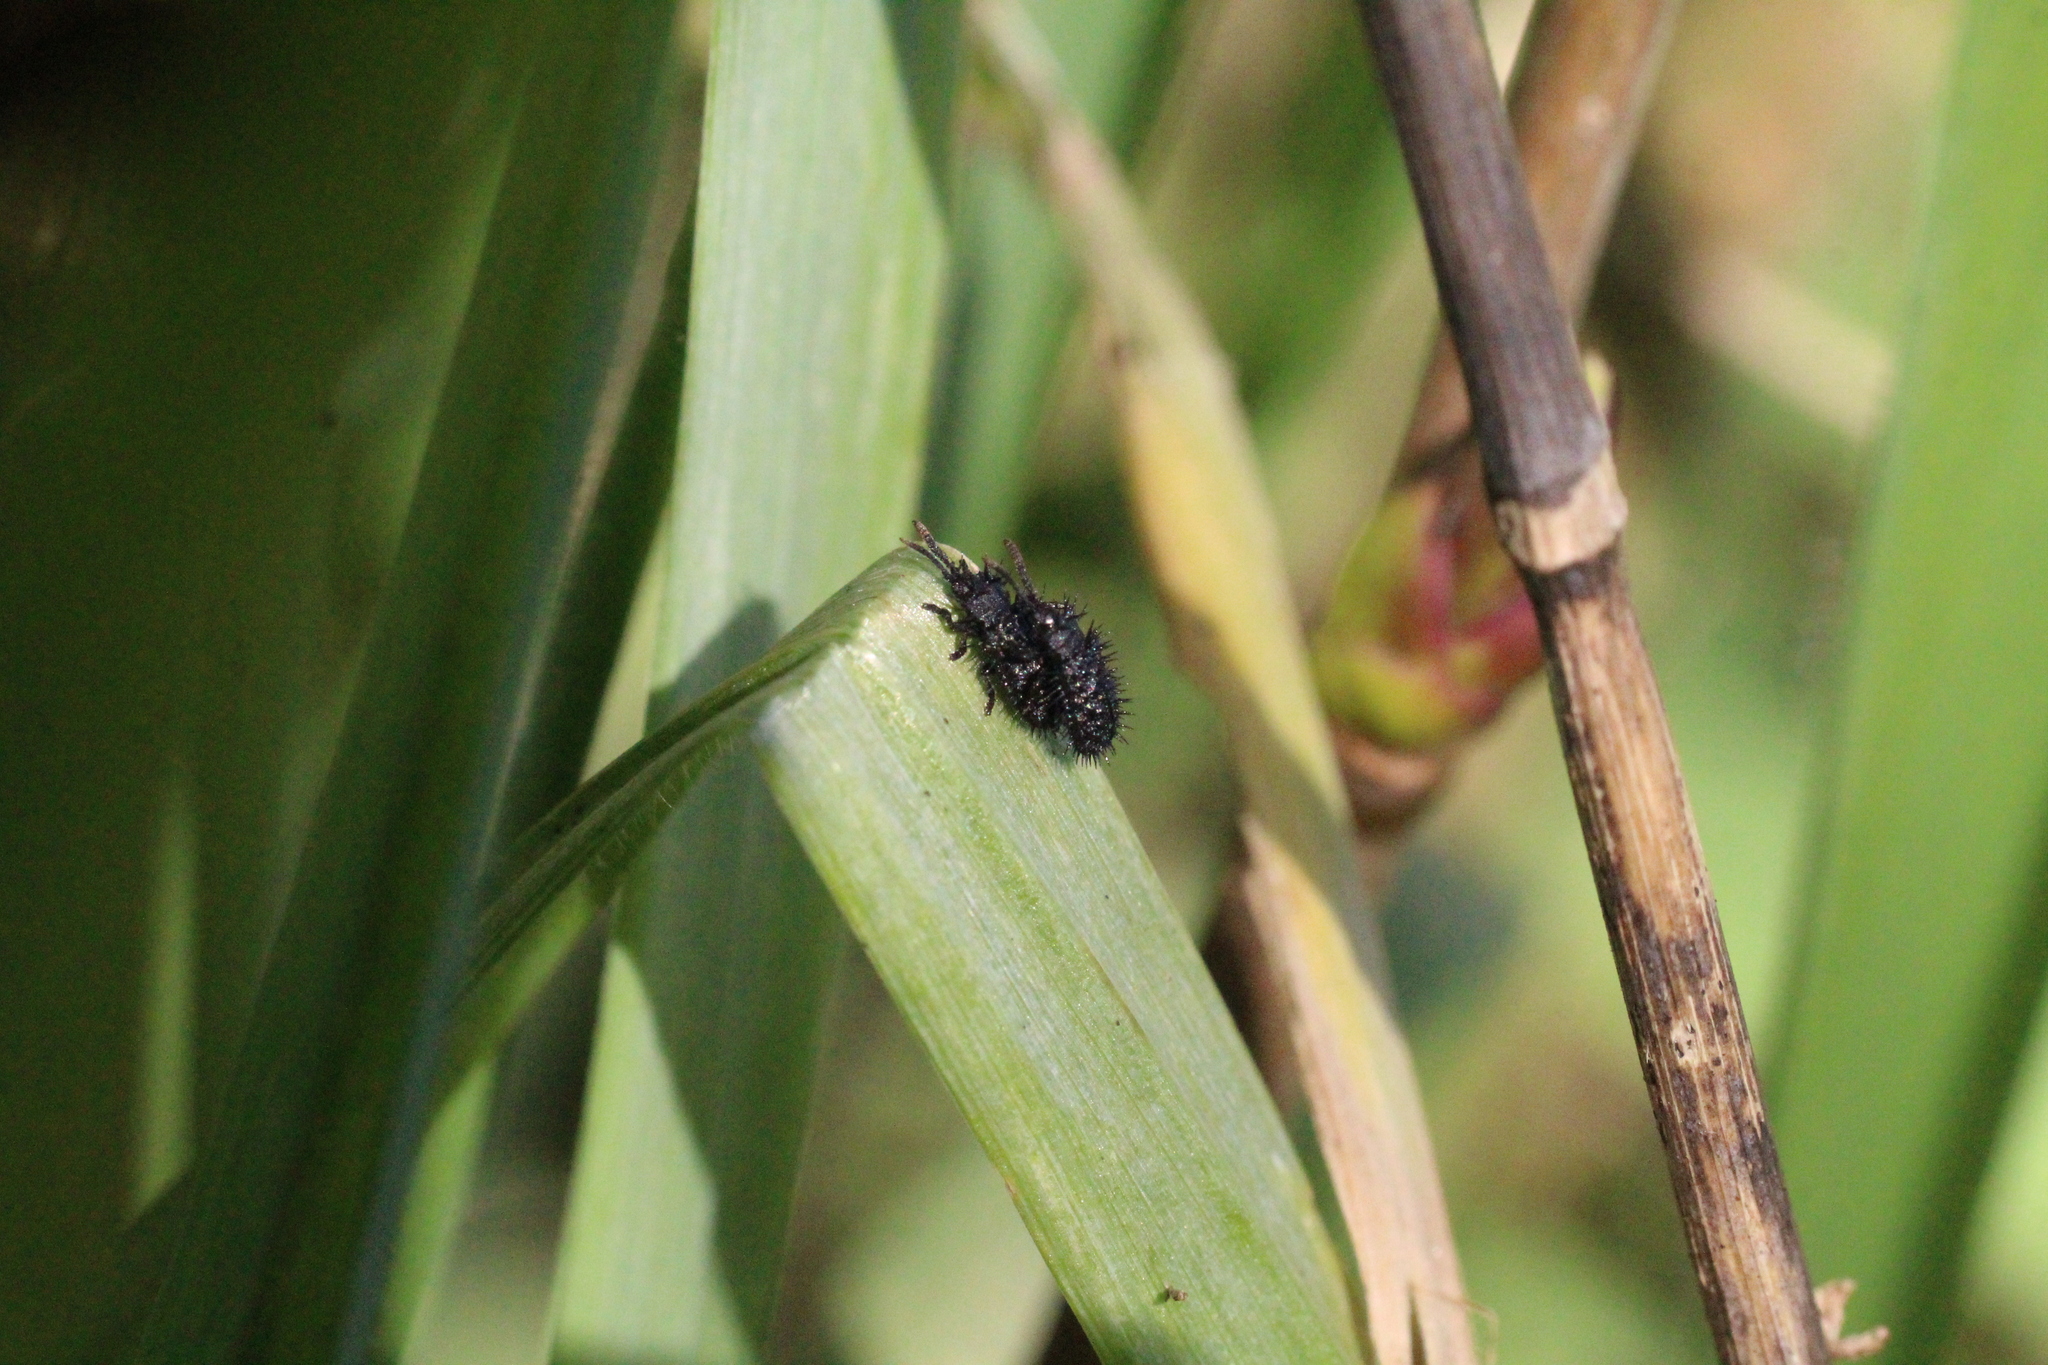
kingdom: Animalia
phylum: Arthropoda
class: Insecta
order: Coleoptera
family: Chrysomelidae
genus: Hispa
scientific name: Hispa atra
